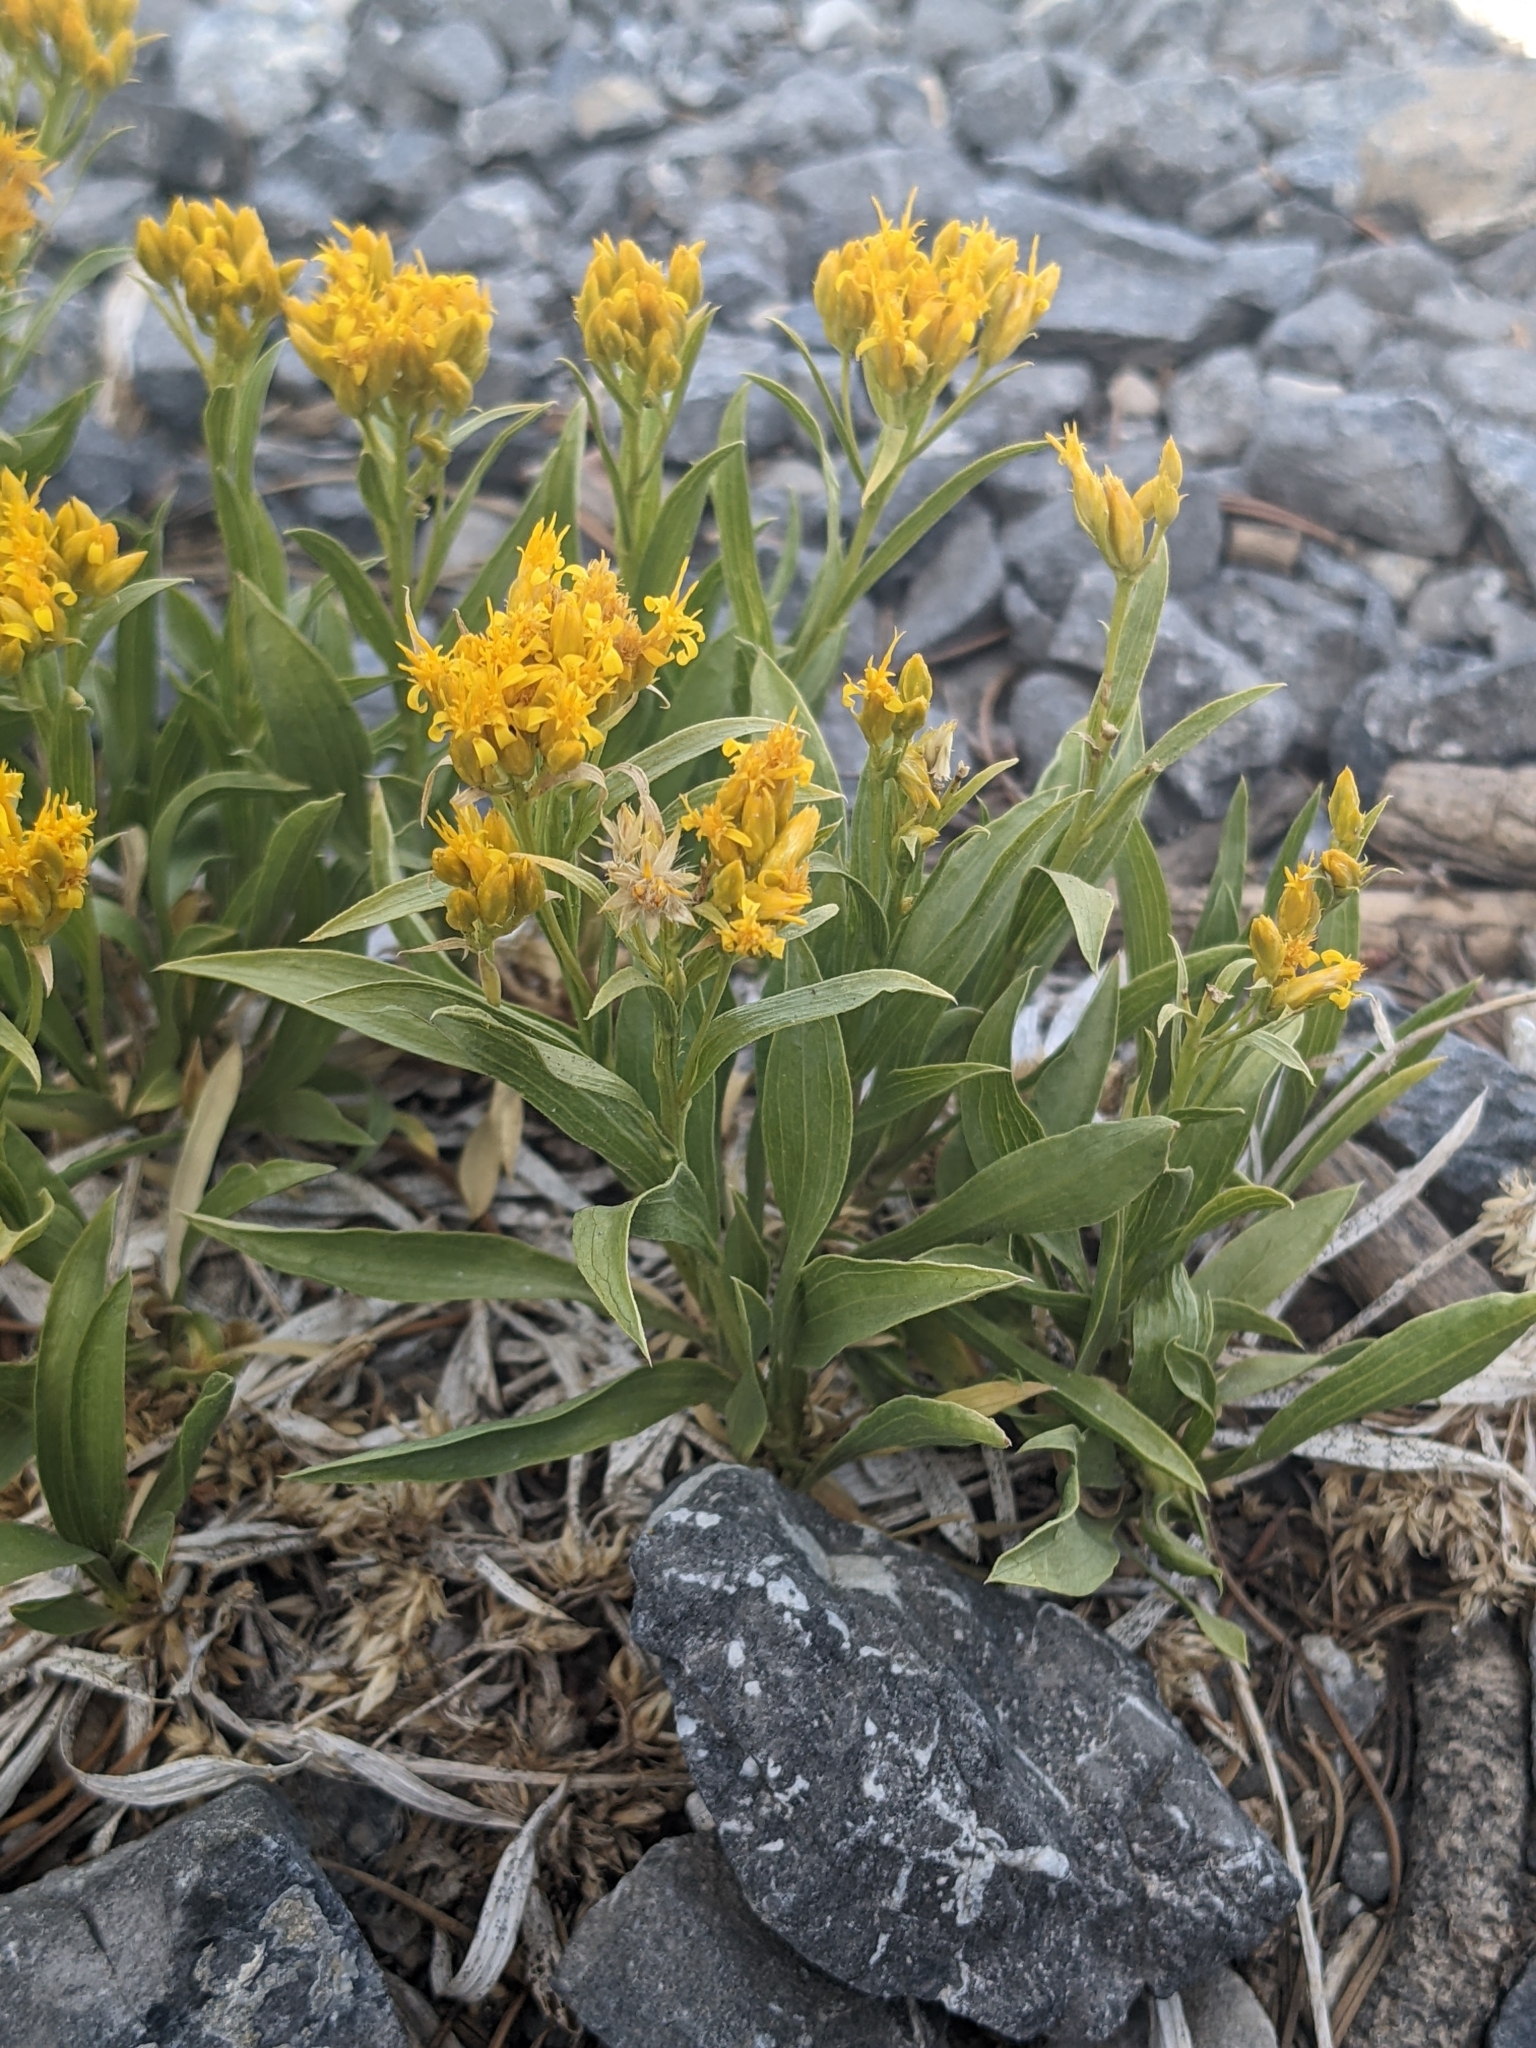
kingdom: Plantae
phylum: Tracheophyta
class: Magnoliopsida
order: Asterales
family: Asteraceae
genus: Petradoria
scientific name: Petradoria pumila
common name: Rock-goldenrod
